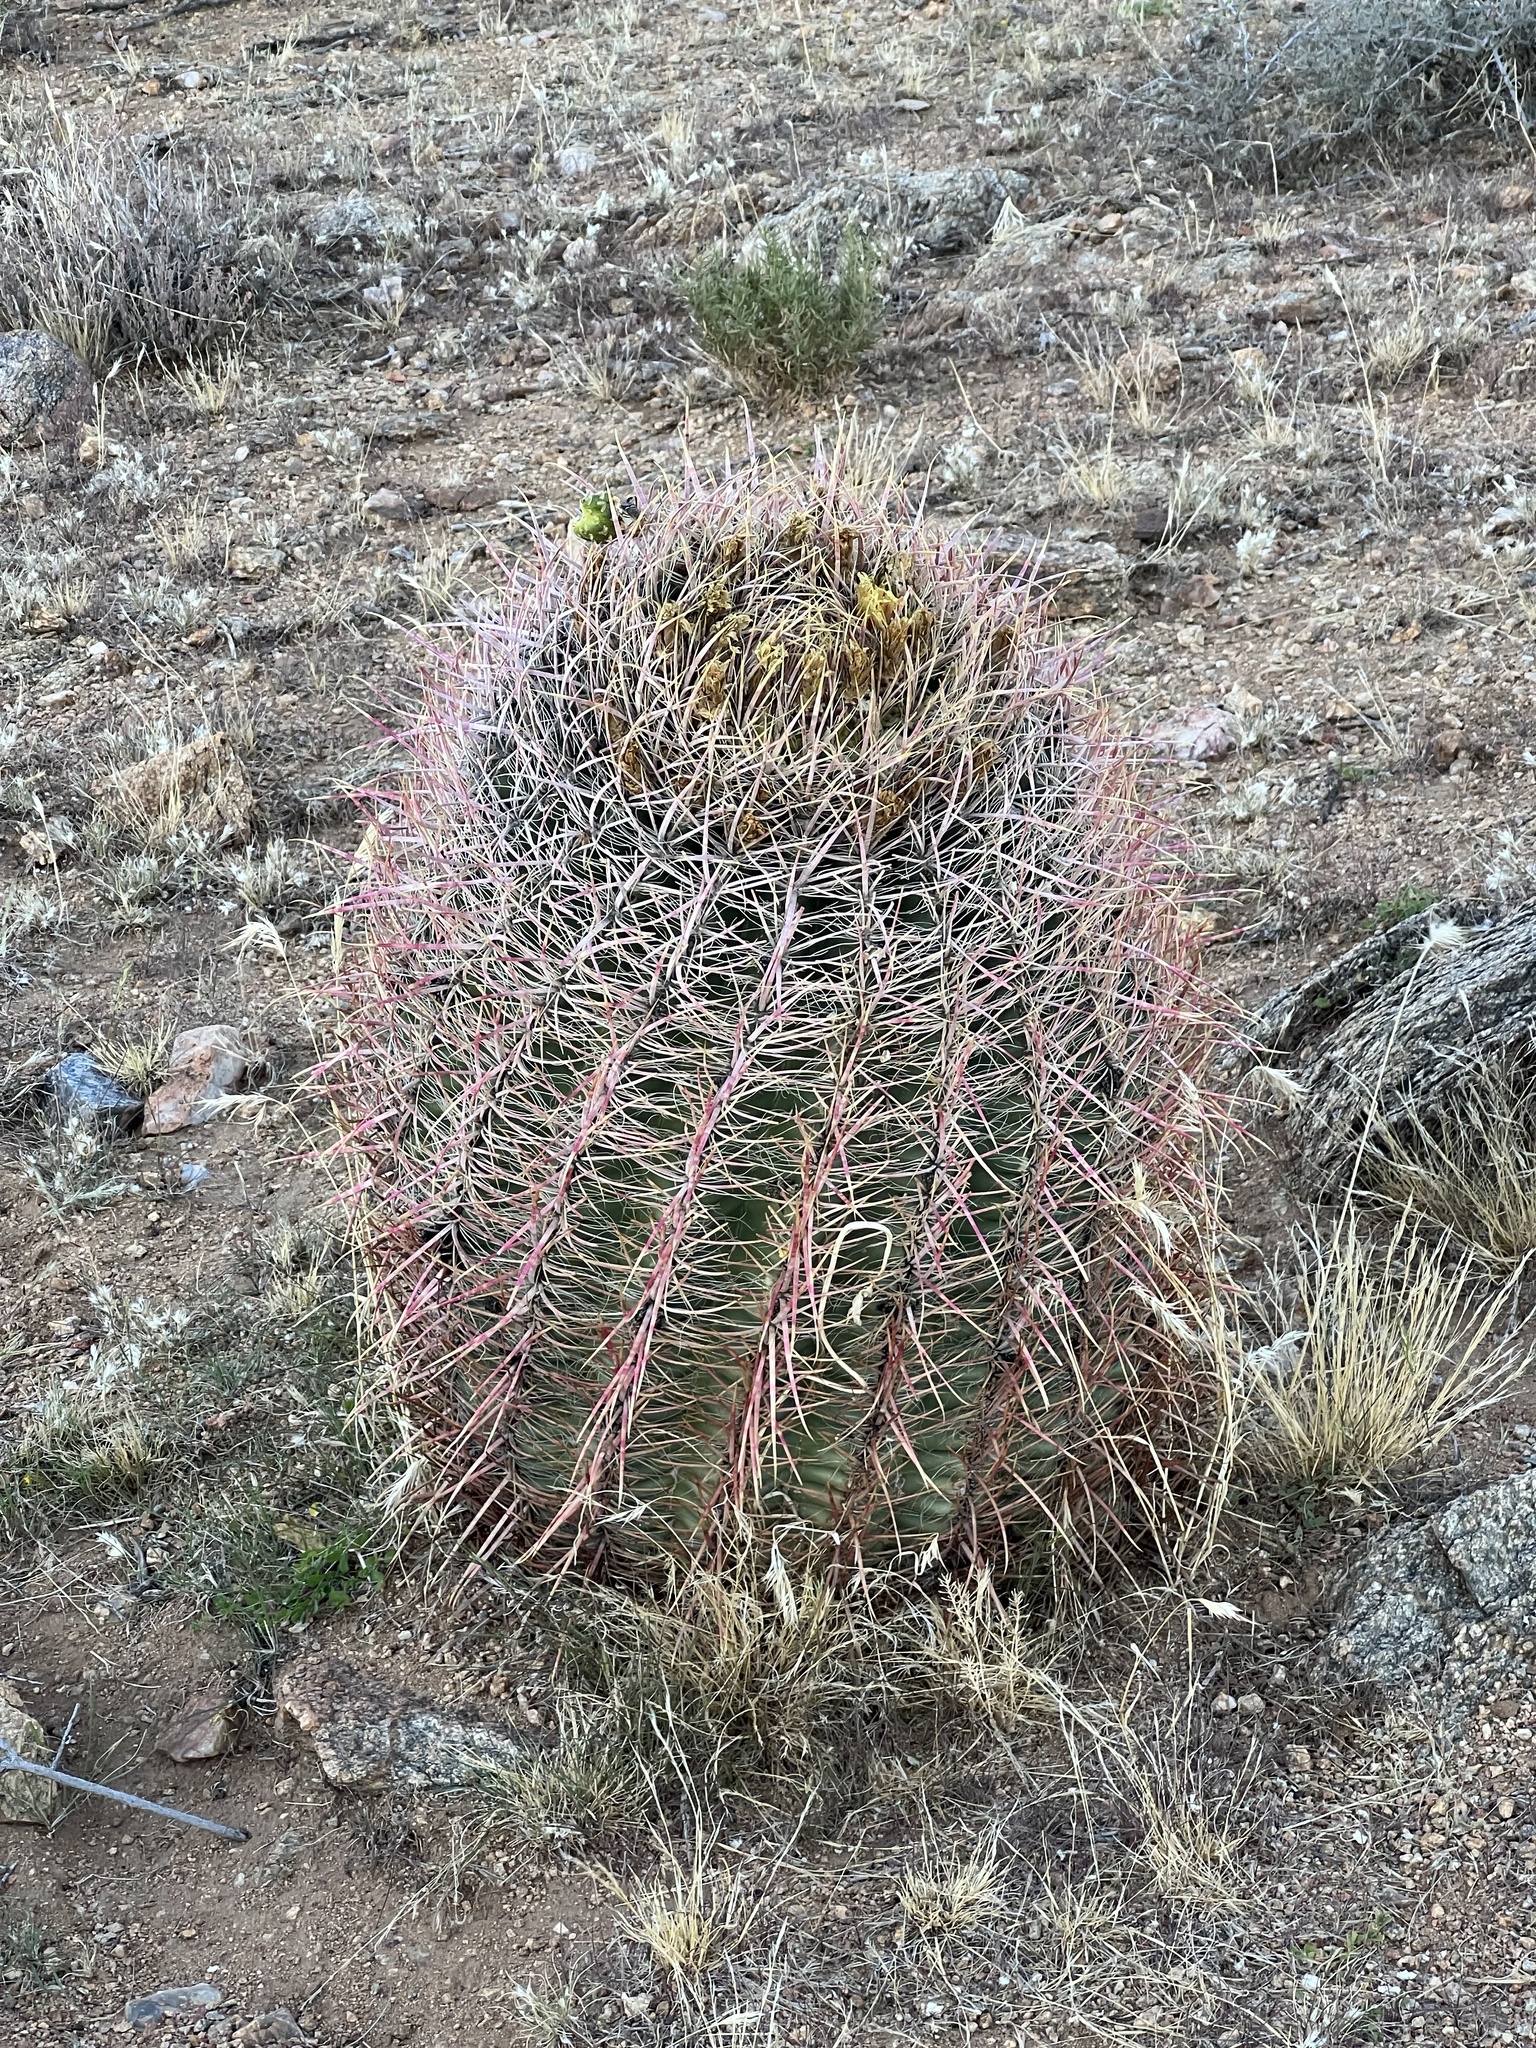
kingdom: Plantae
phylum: Tracheophyta
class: Magnoliopsida
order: Caryophyllales
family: Cactaceae
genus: Ferocactus
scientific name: Ferocactus cylindraceus
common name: California barrel cactus
